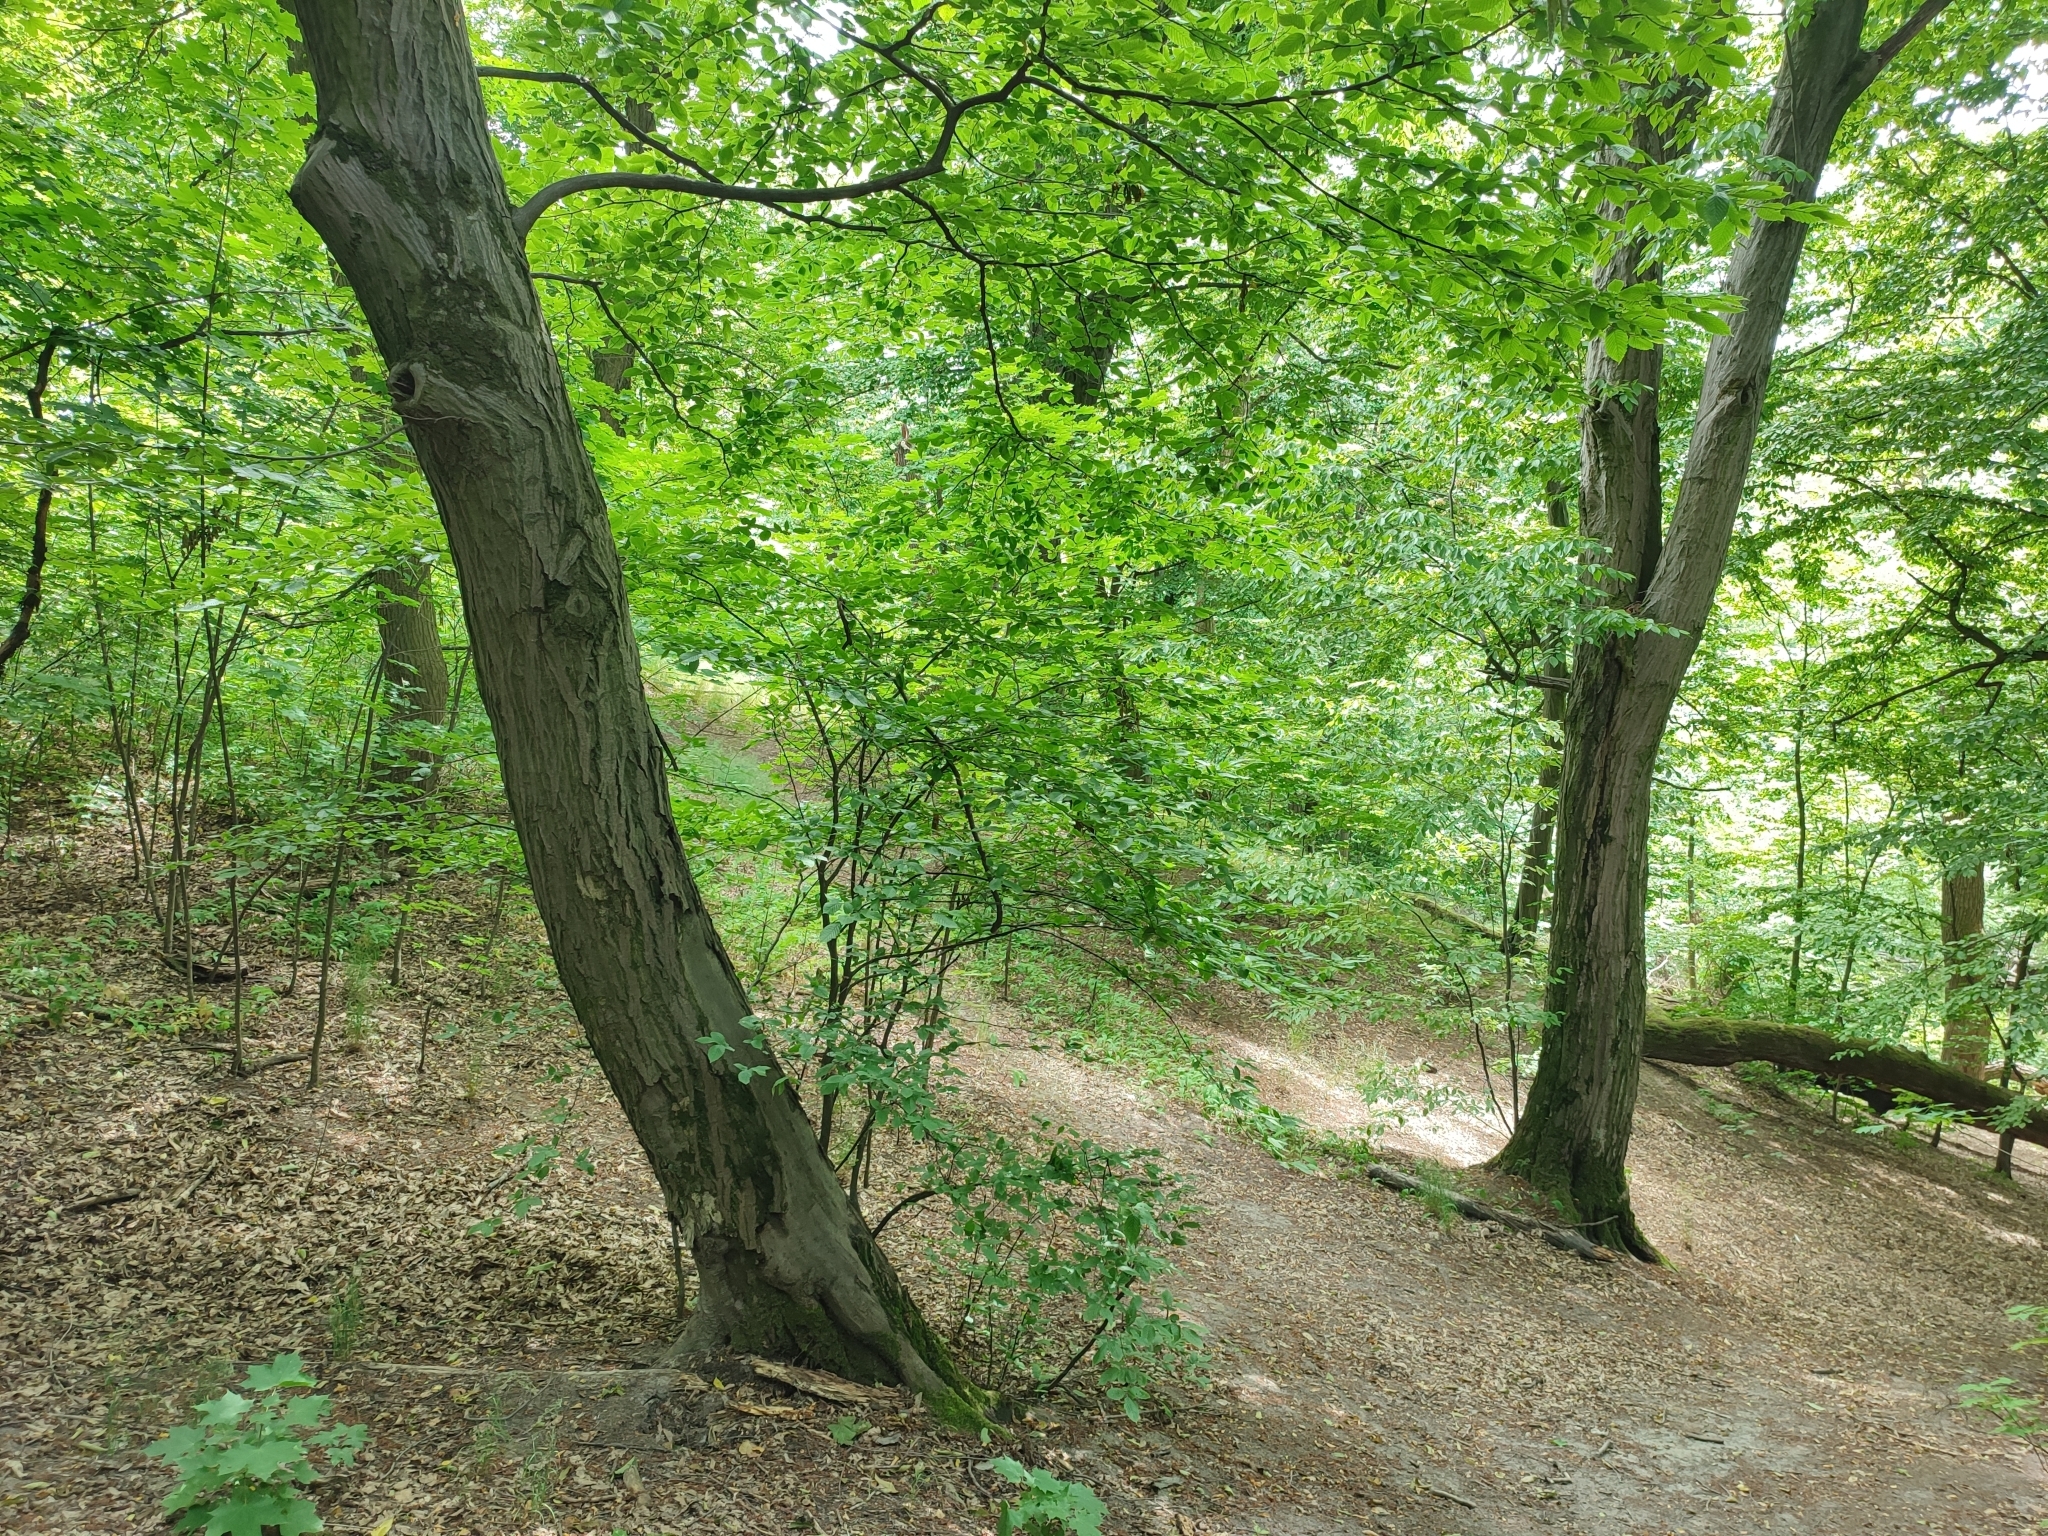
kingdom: Plantae
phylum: Tracheophyta
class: Magnoliopsida
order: Fagales
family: Betulaceae
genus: Carpinus
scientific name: Carpinus betulus
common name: Hornbeam
